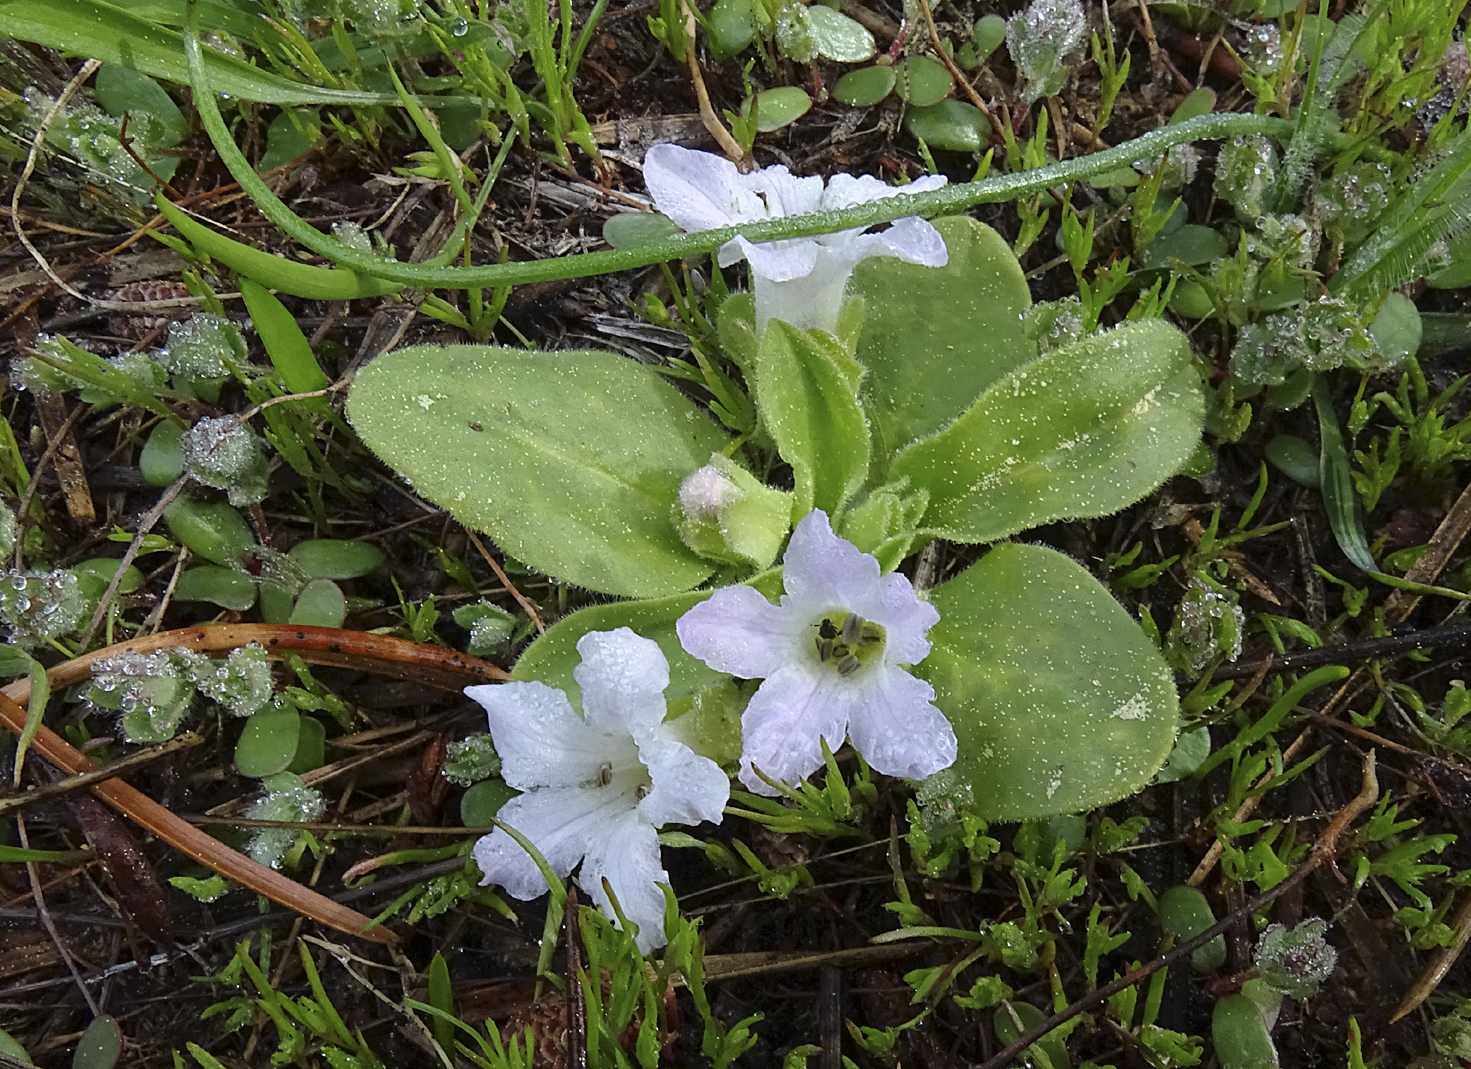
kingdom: Plantae
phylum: Tracheophyta
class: Magnoliopsida
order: Boraginales
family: Hydrophyllaceae
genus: Hesperochiron
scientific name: Hesperochiron californicus
